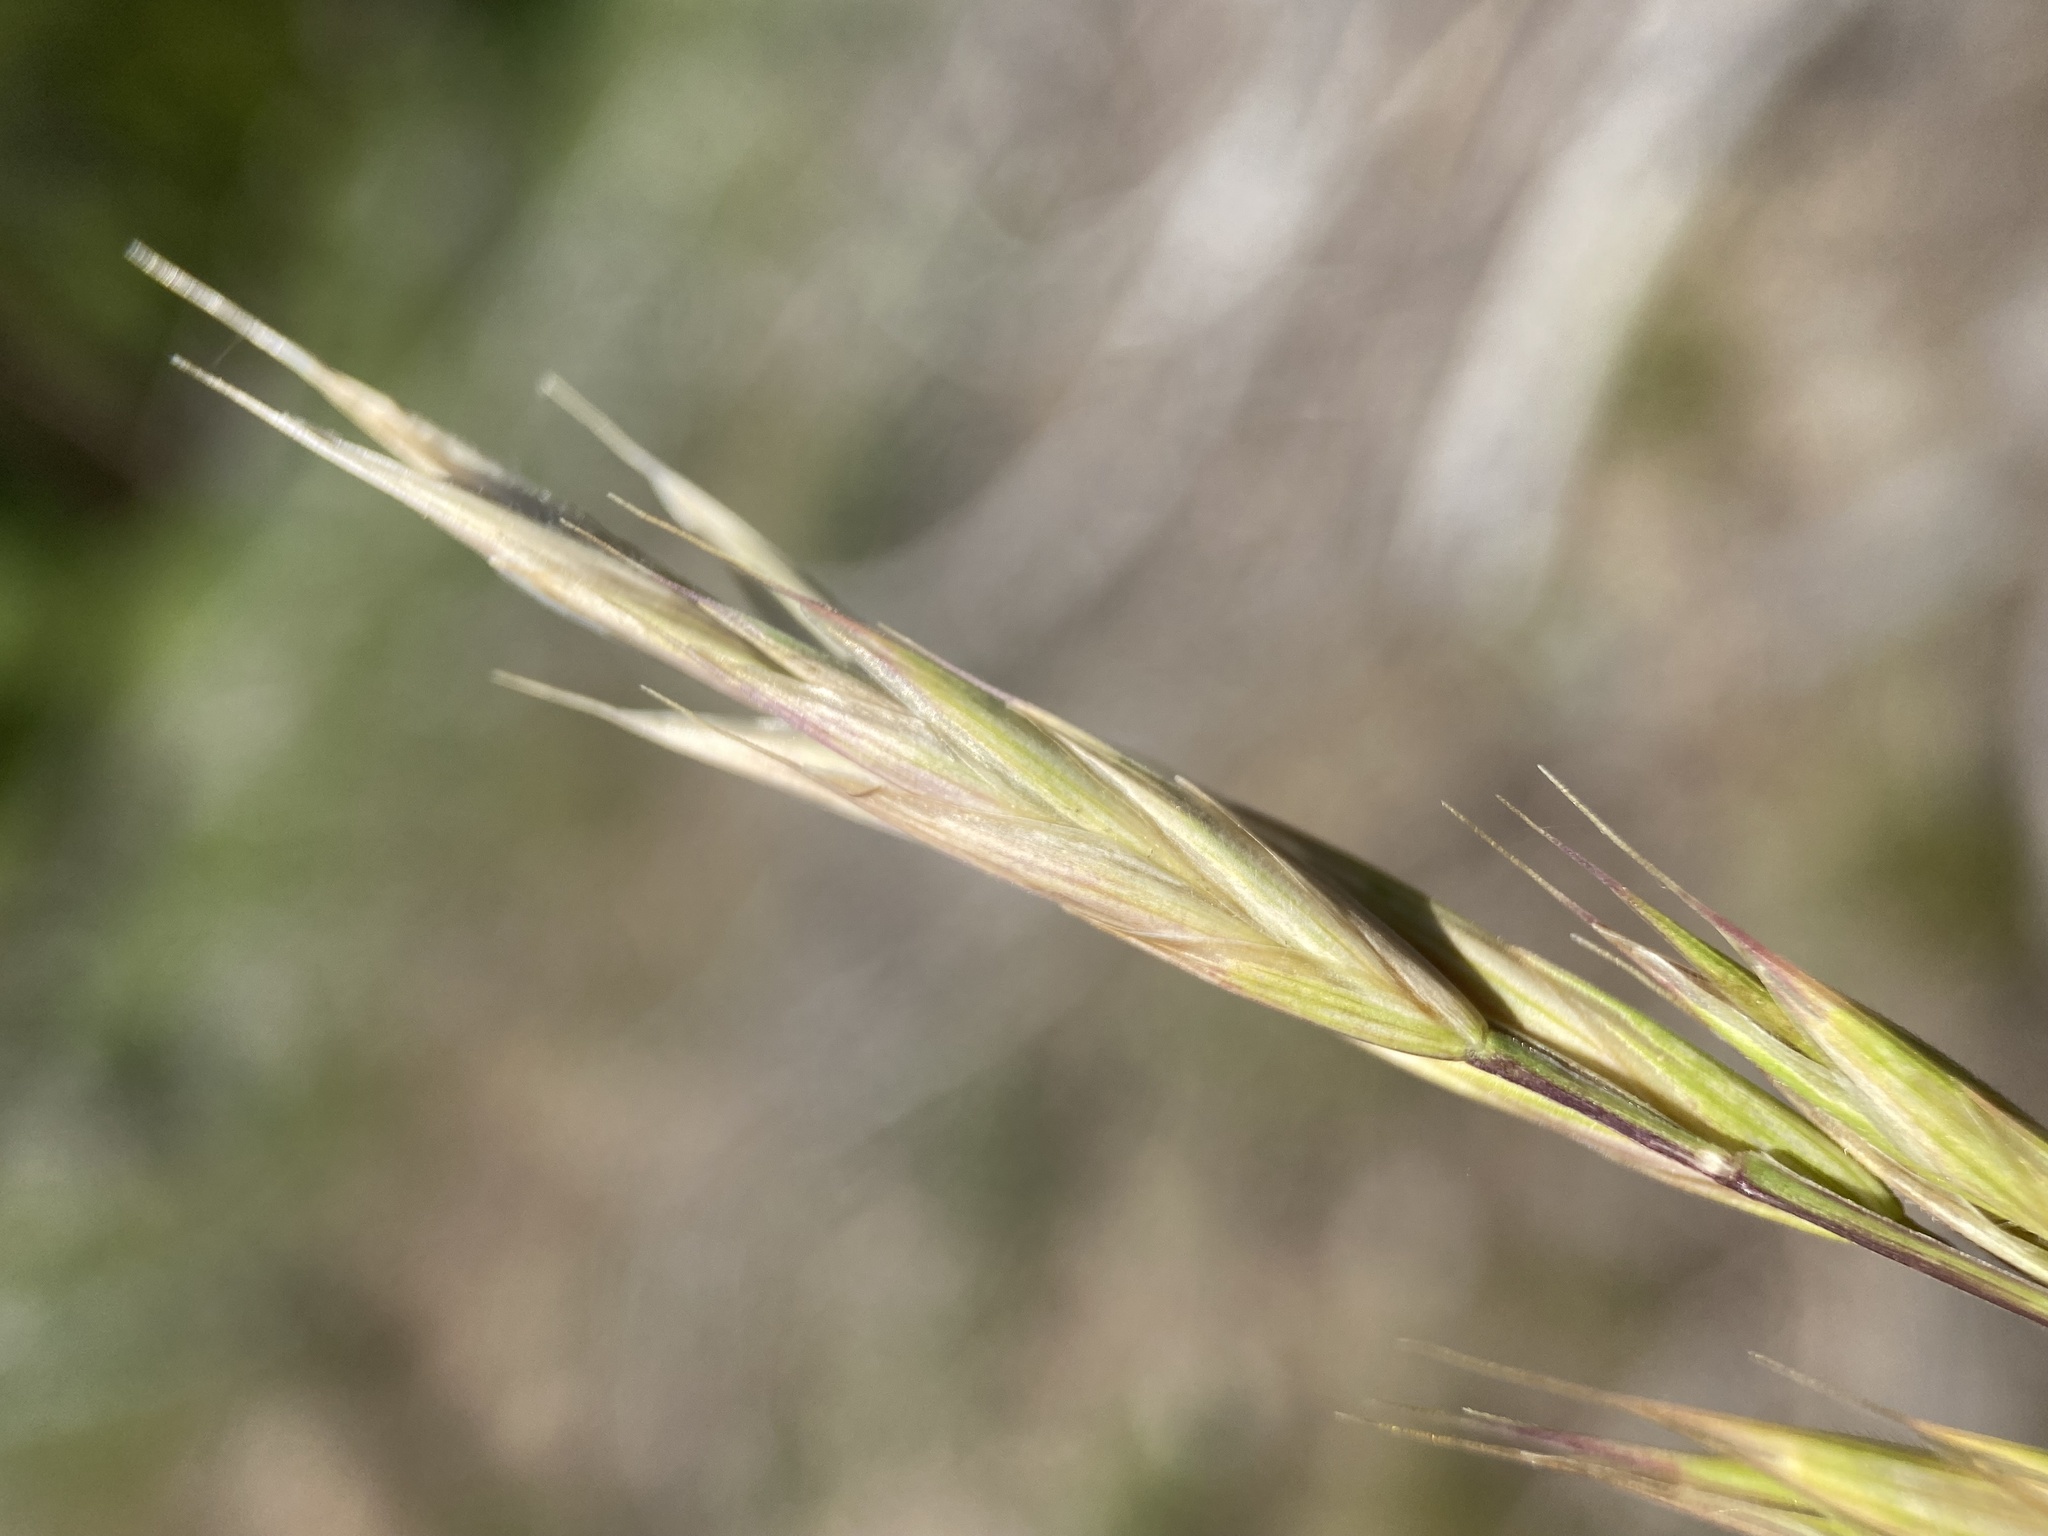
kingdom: Plantae
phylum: Tracheophyta
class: Liliopsida
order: Poales
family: Poaceae
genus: Bromus
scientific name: Bromus marginatus
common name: Western brome
